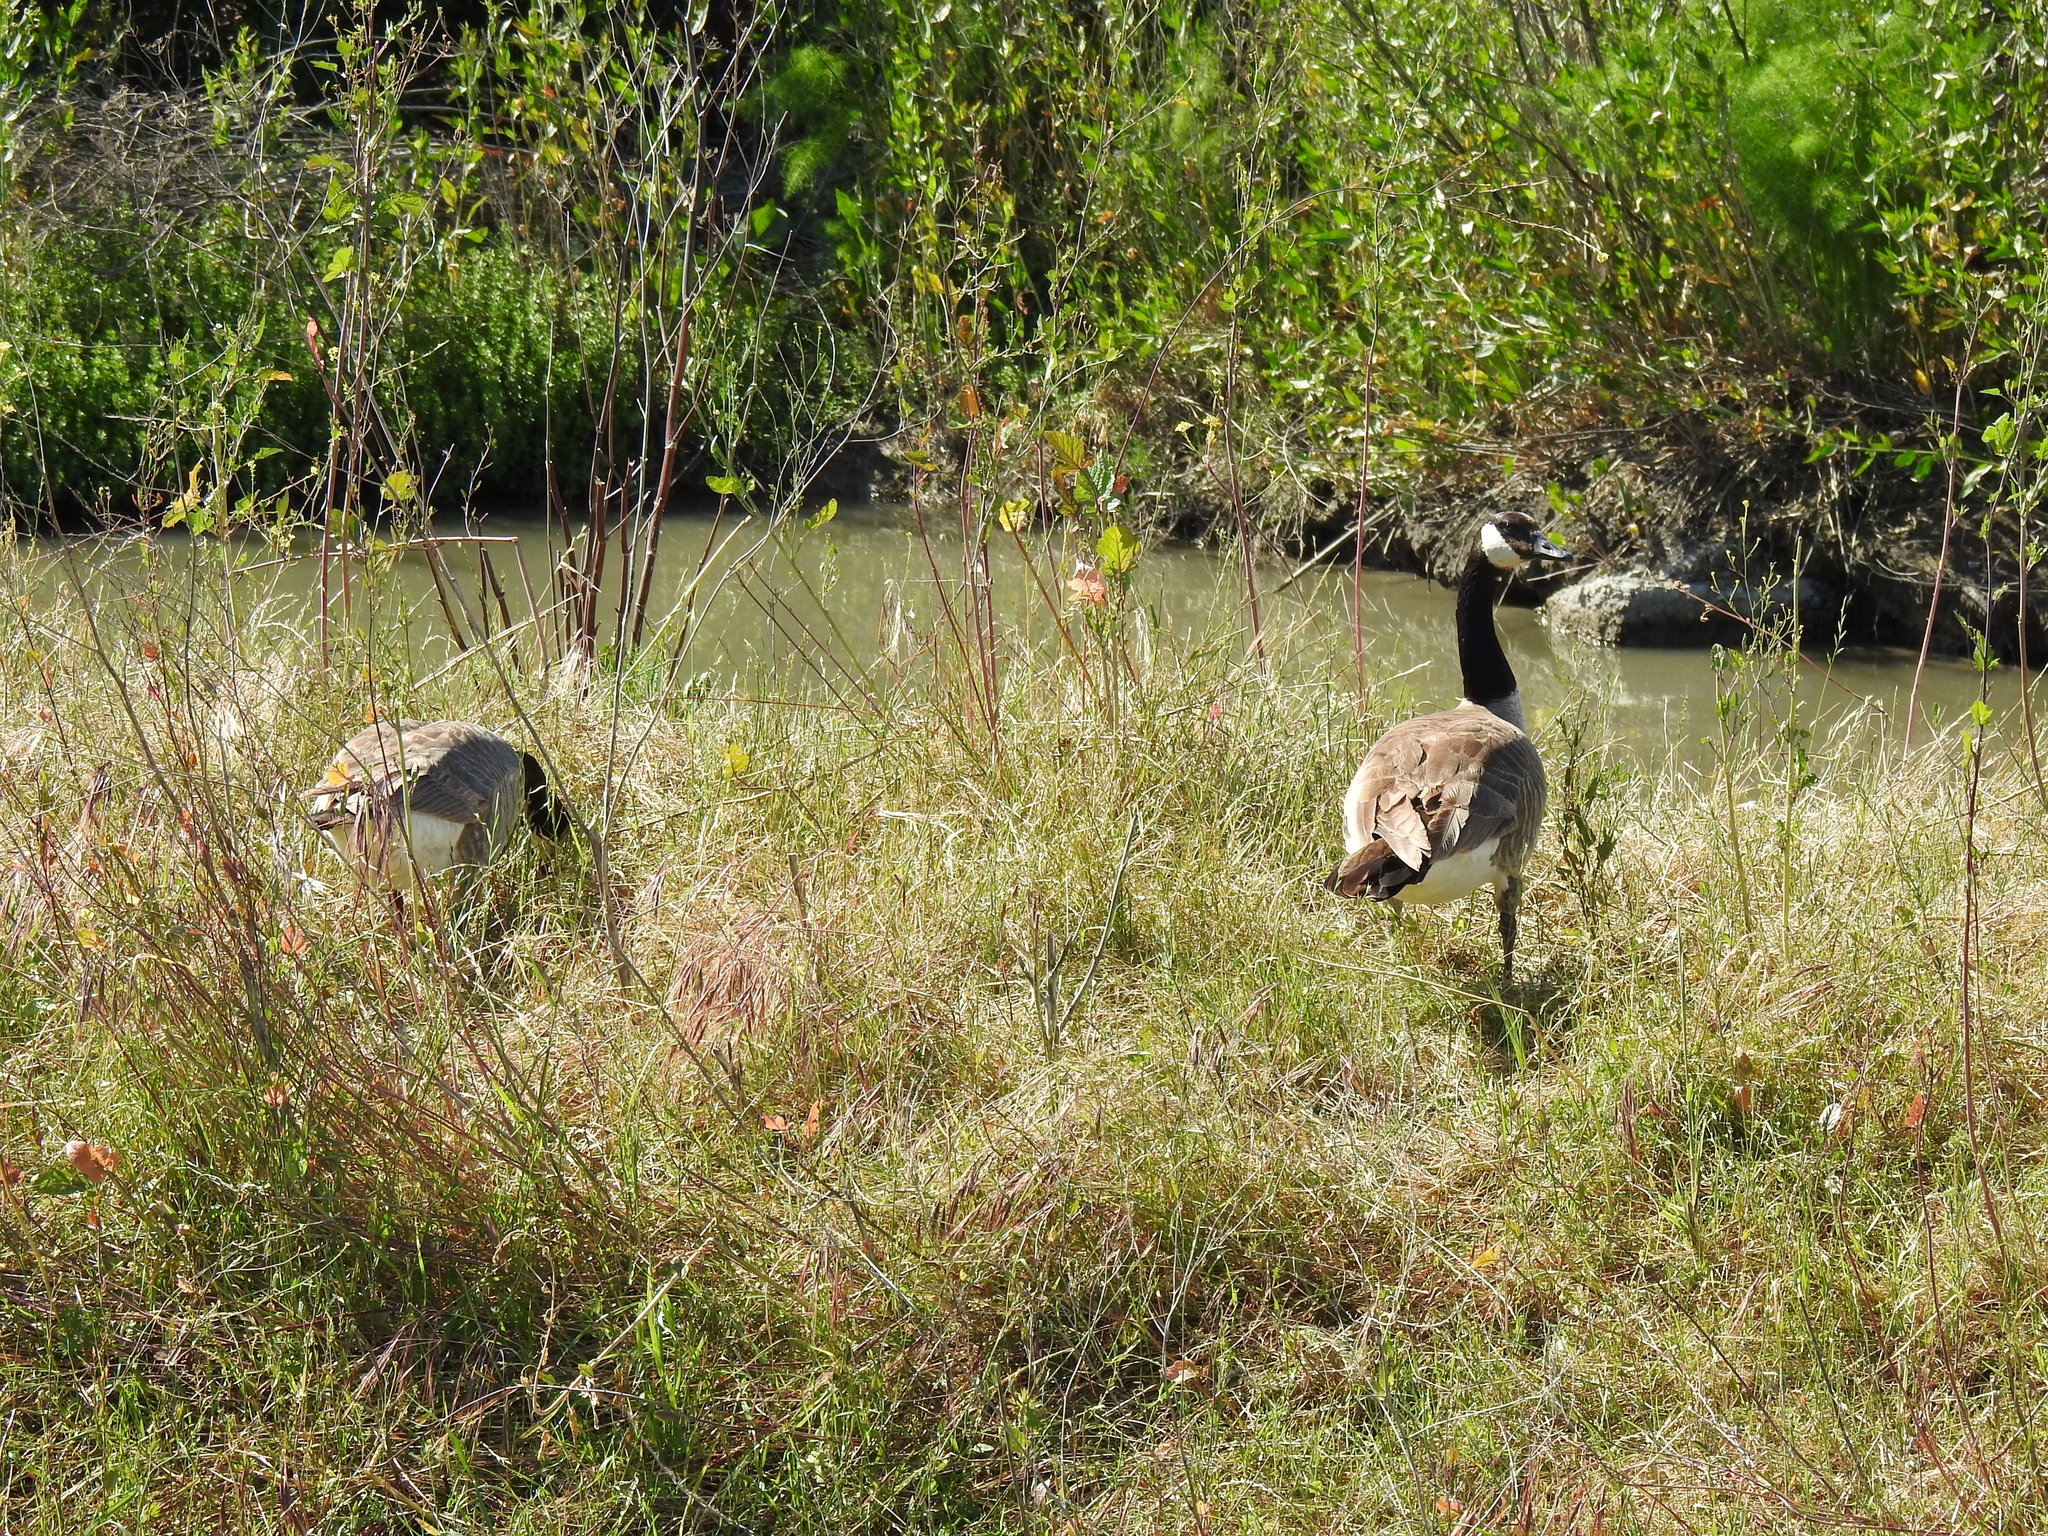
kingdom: Animalia
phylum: Chordata
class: Aves
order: Anseriformes
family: Anatidae
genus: Branta
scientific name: Branta canadensis
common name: Canada goose
